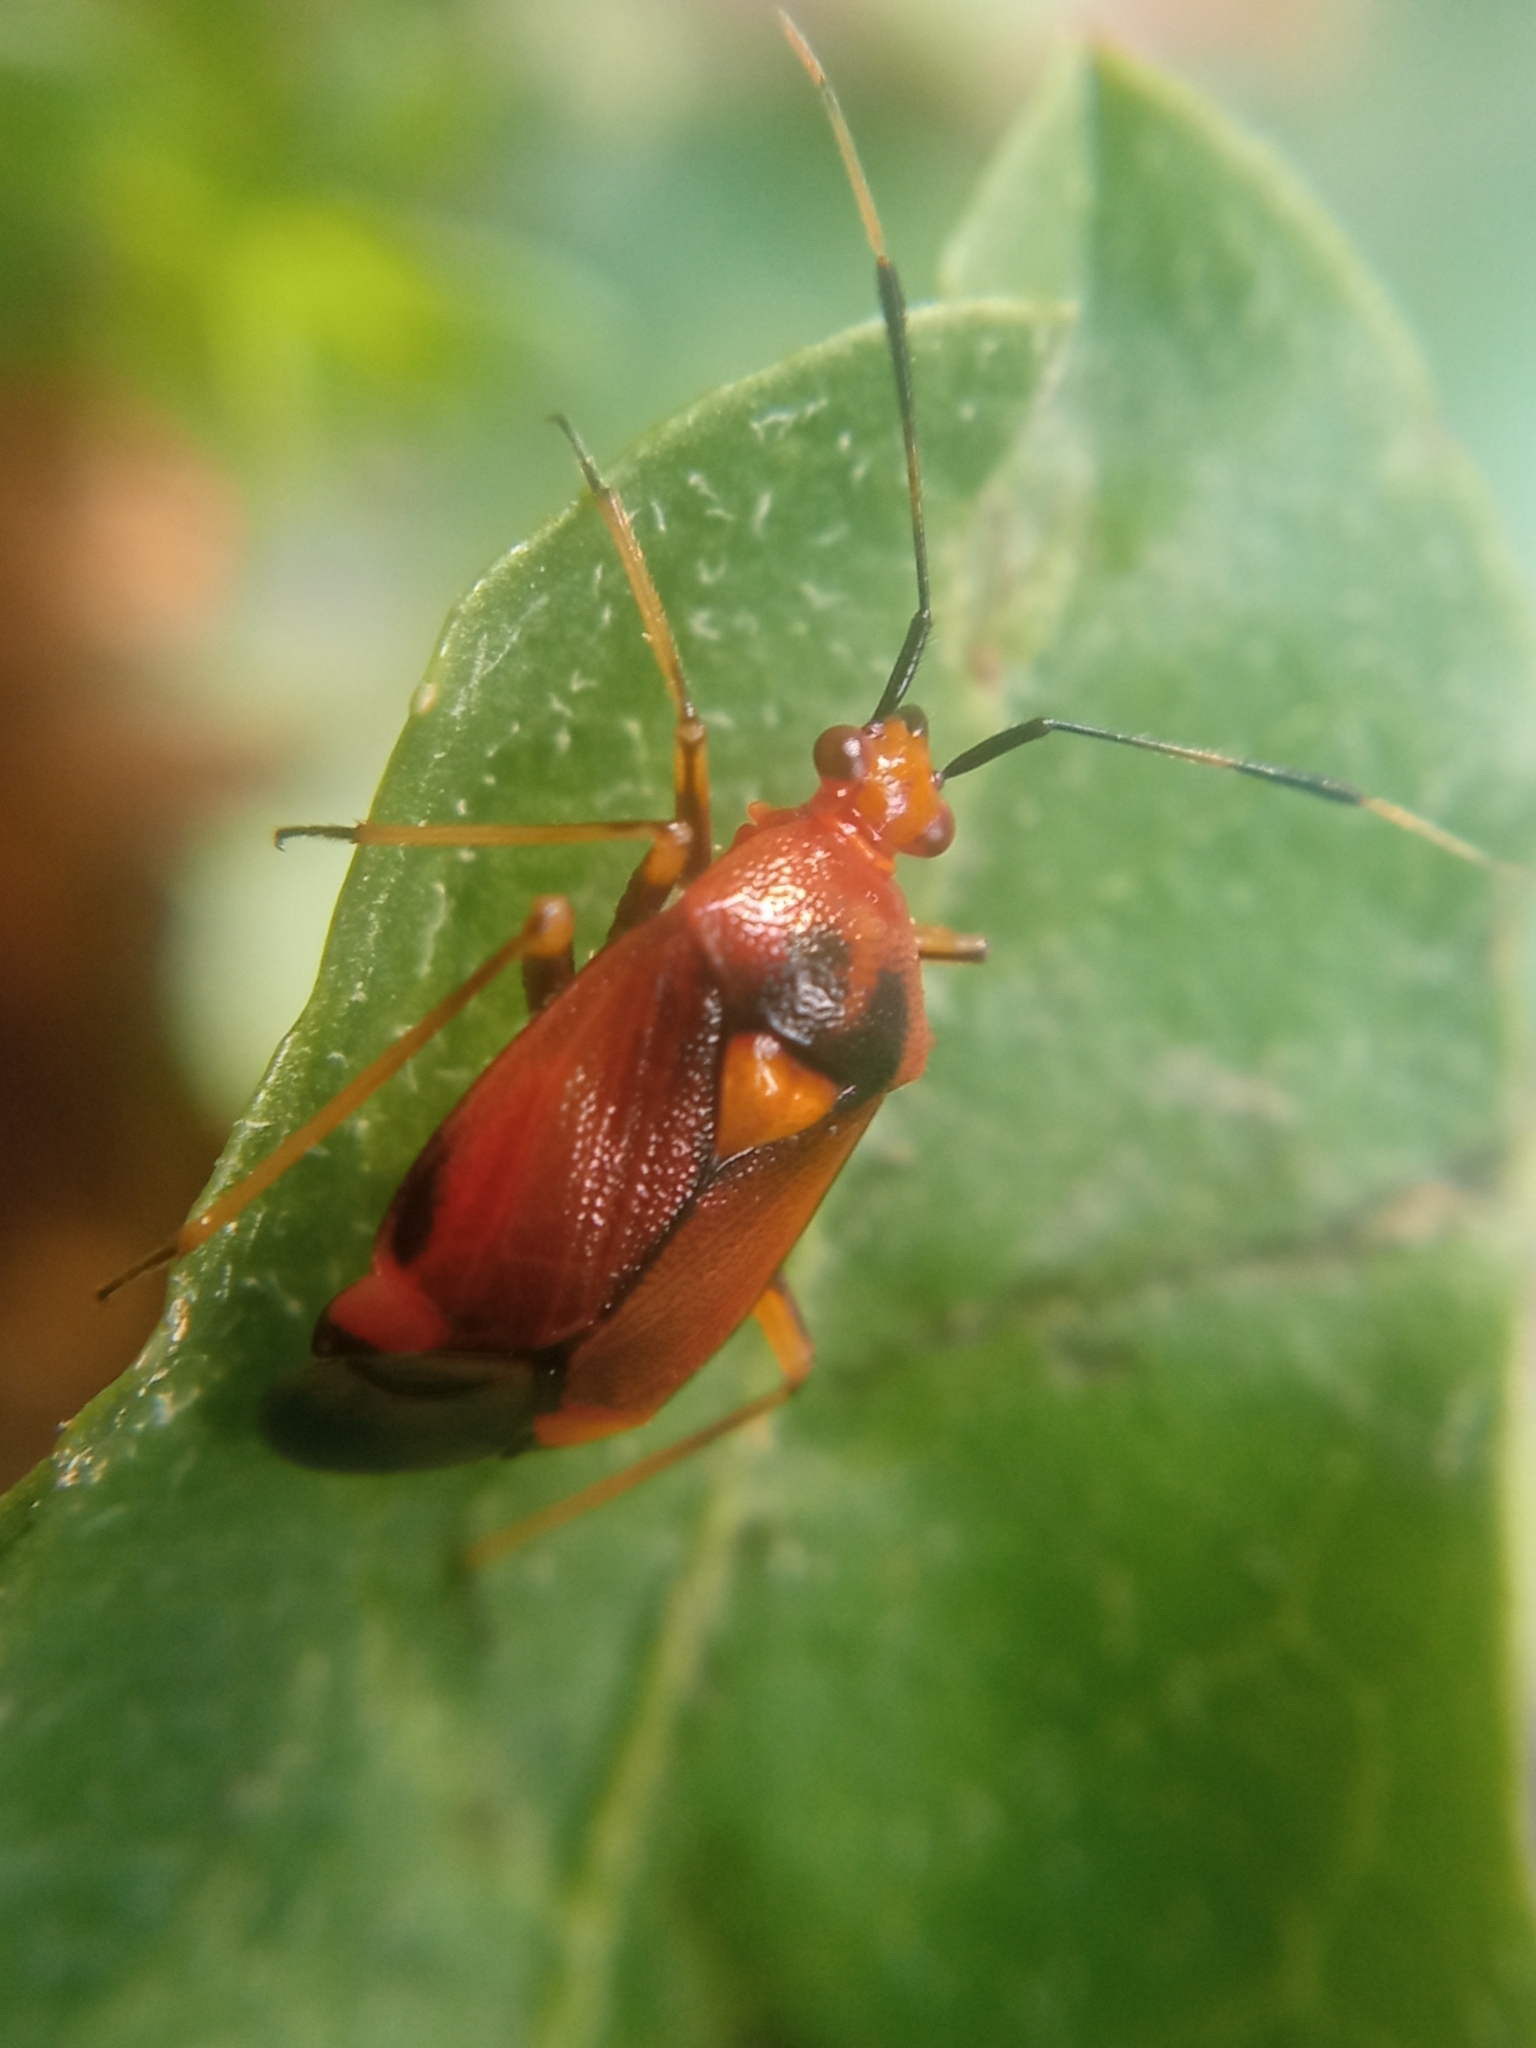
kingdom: Animalia
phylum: Arthropoda
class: Insecta
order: Hemiptera
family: Miridae
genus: Deraeocoris
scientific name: Deraeocoris ruber
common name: Plant bug
